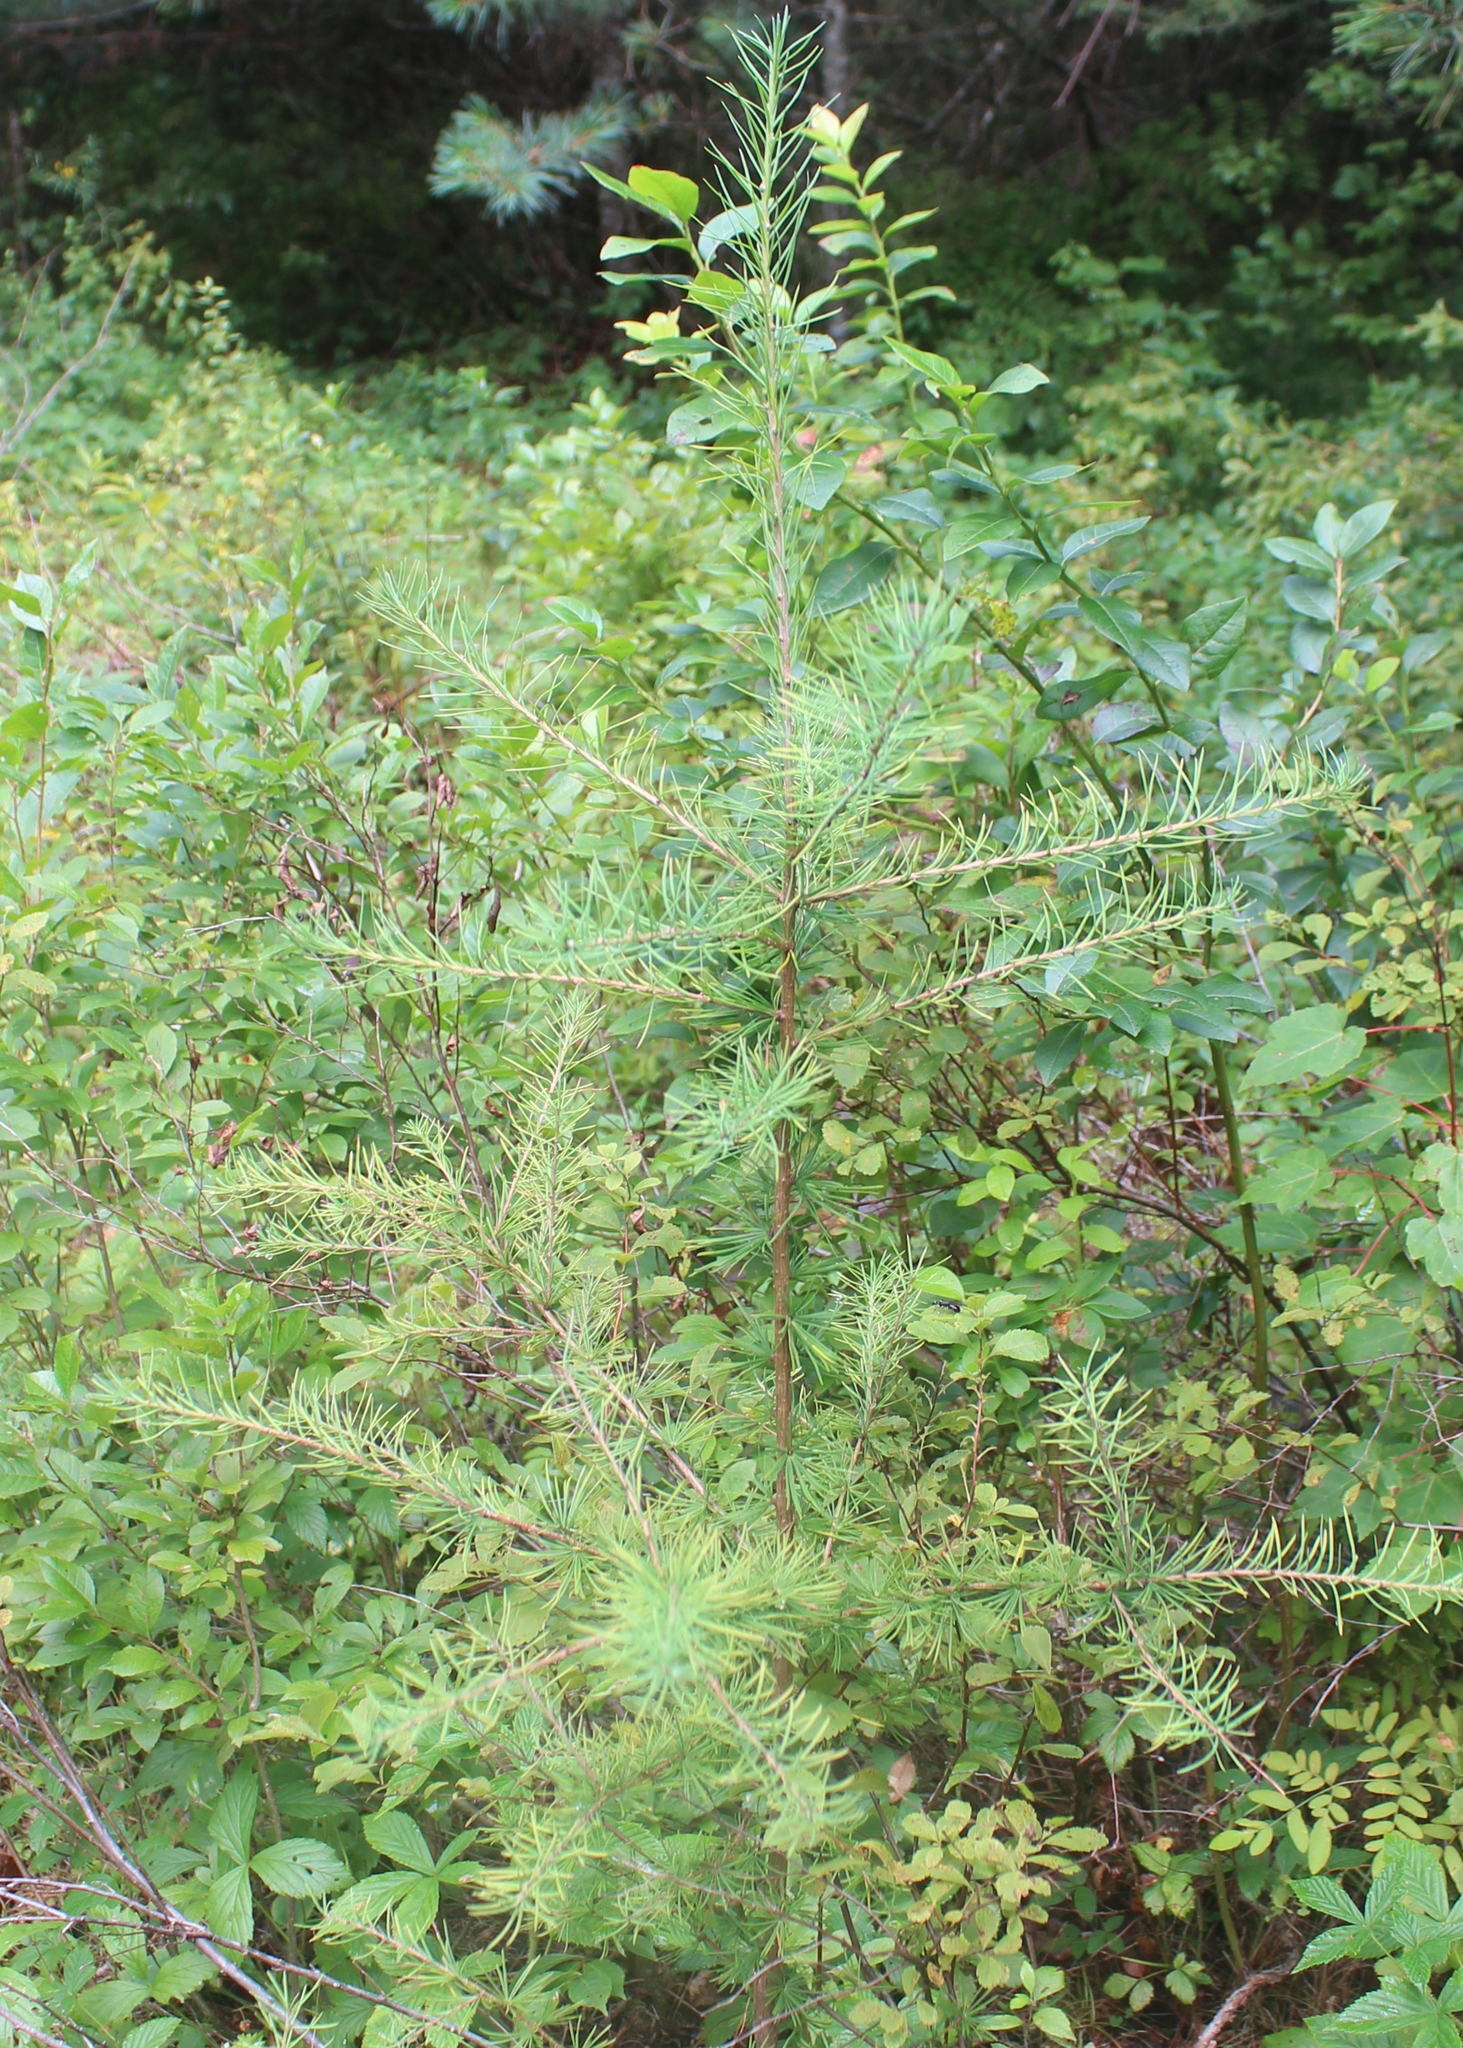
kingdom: Plantae
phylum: Tracheophyta
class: Pinopsida
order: Pinales
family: Pinaceae
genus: Larix
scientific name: Larix laricina
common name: American larch
